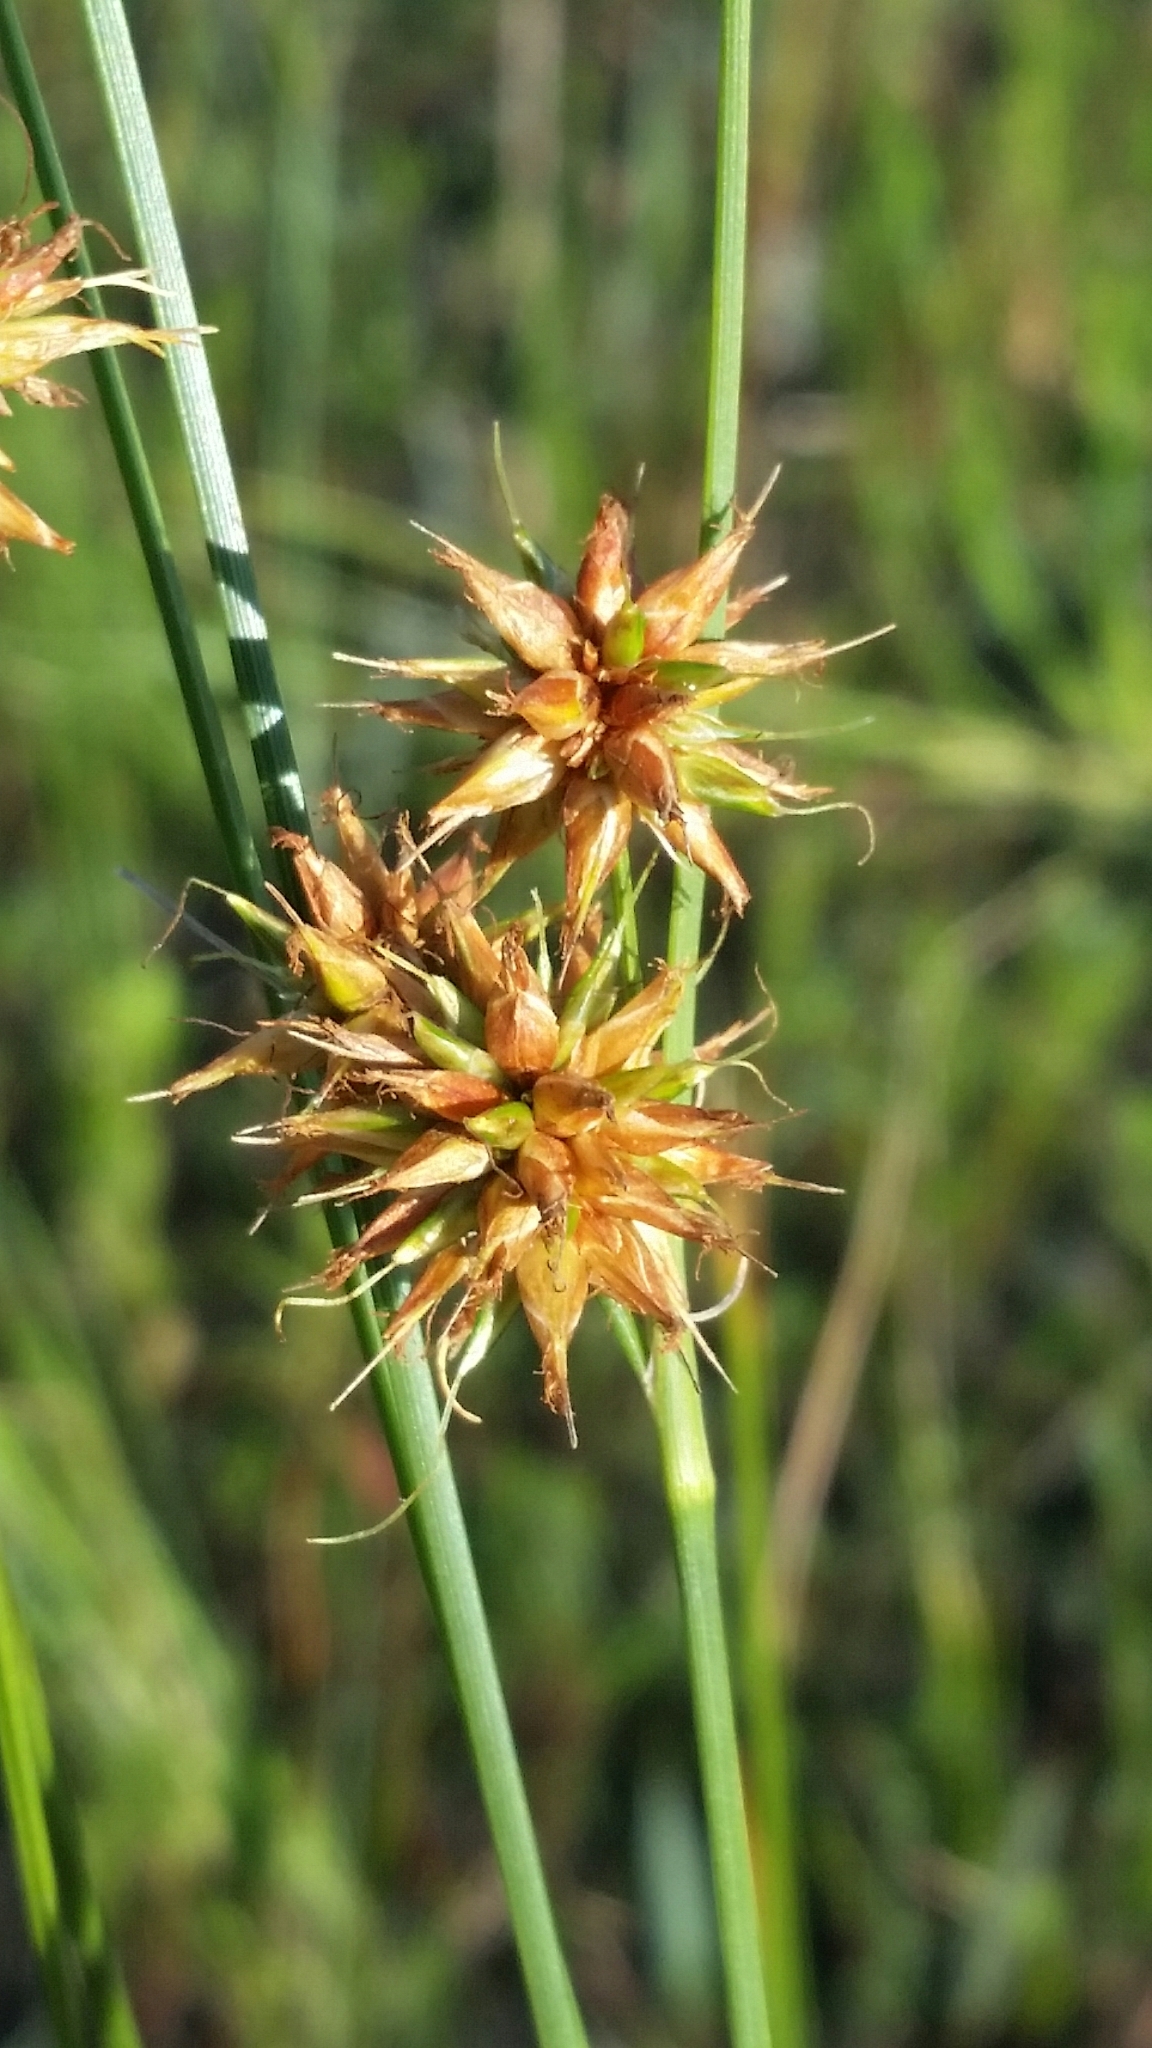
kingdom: Plantae
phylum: Tracheophyta
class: Liliopsida
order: Poales
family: Cyperaceae
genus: Rhynchospora
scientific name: Rhynchospora tracyi
